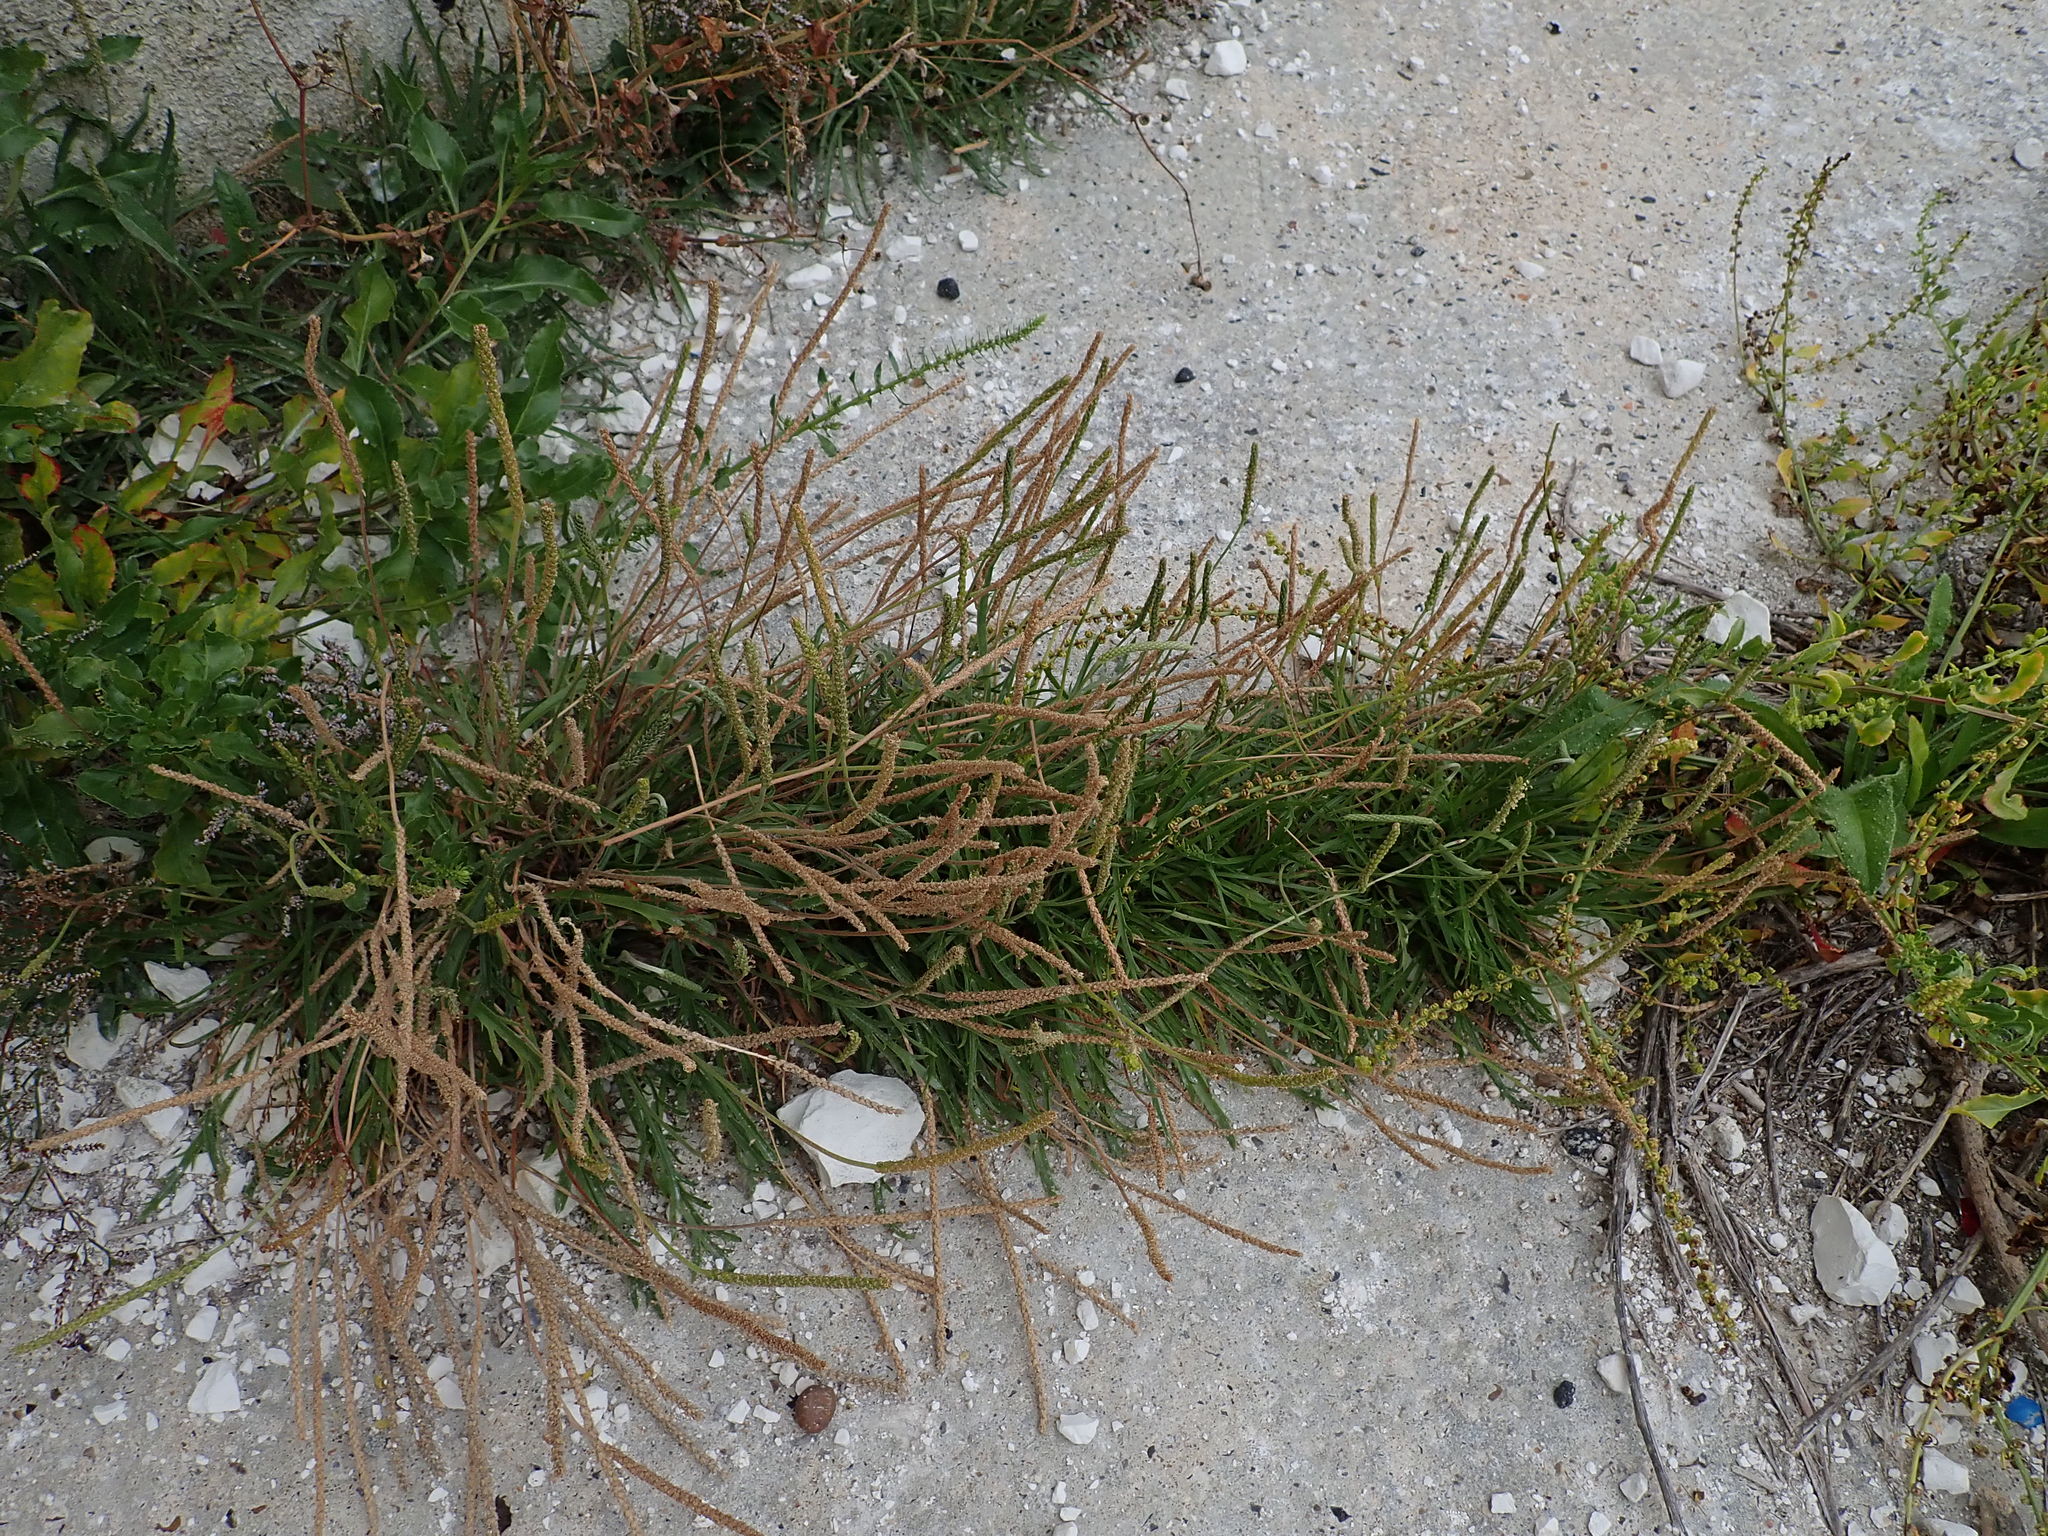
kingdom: Plantae
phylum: Tracheophyta
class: Magnoliopsida
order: Lamiales
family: Plantaginaceae
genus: Plantago
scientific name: Plantago maritima
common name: Sea plantain
